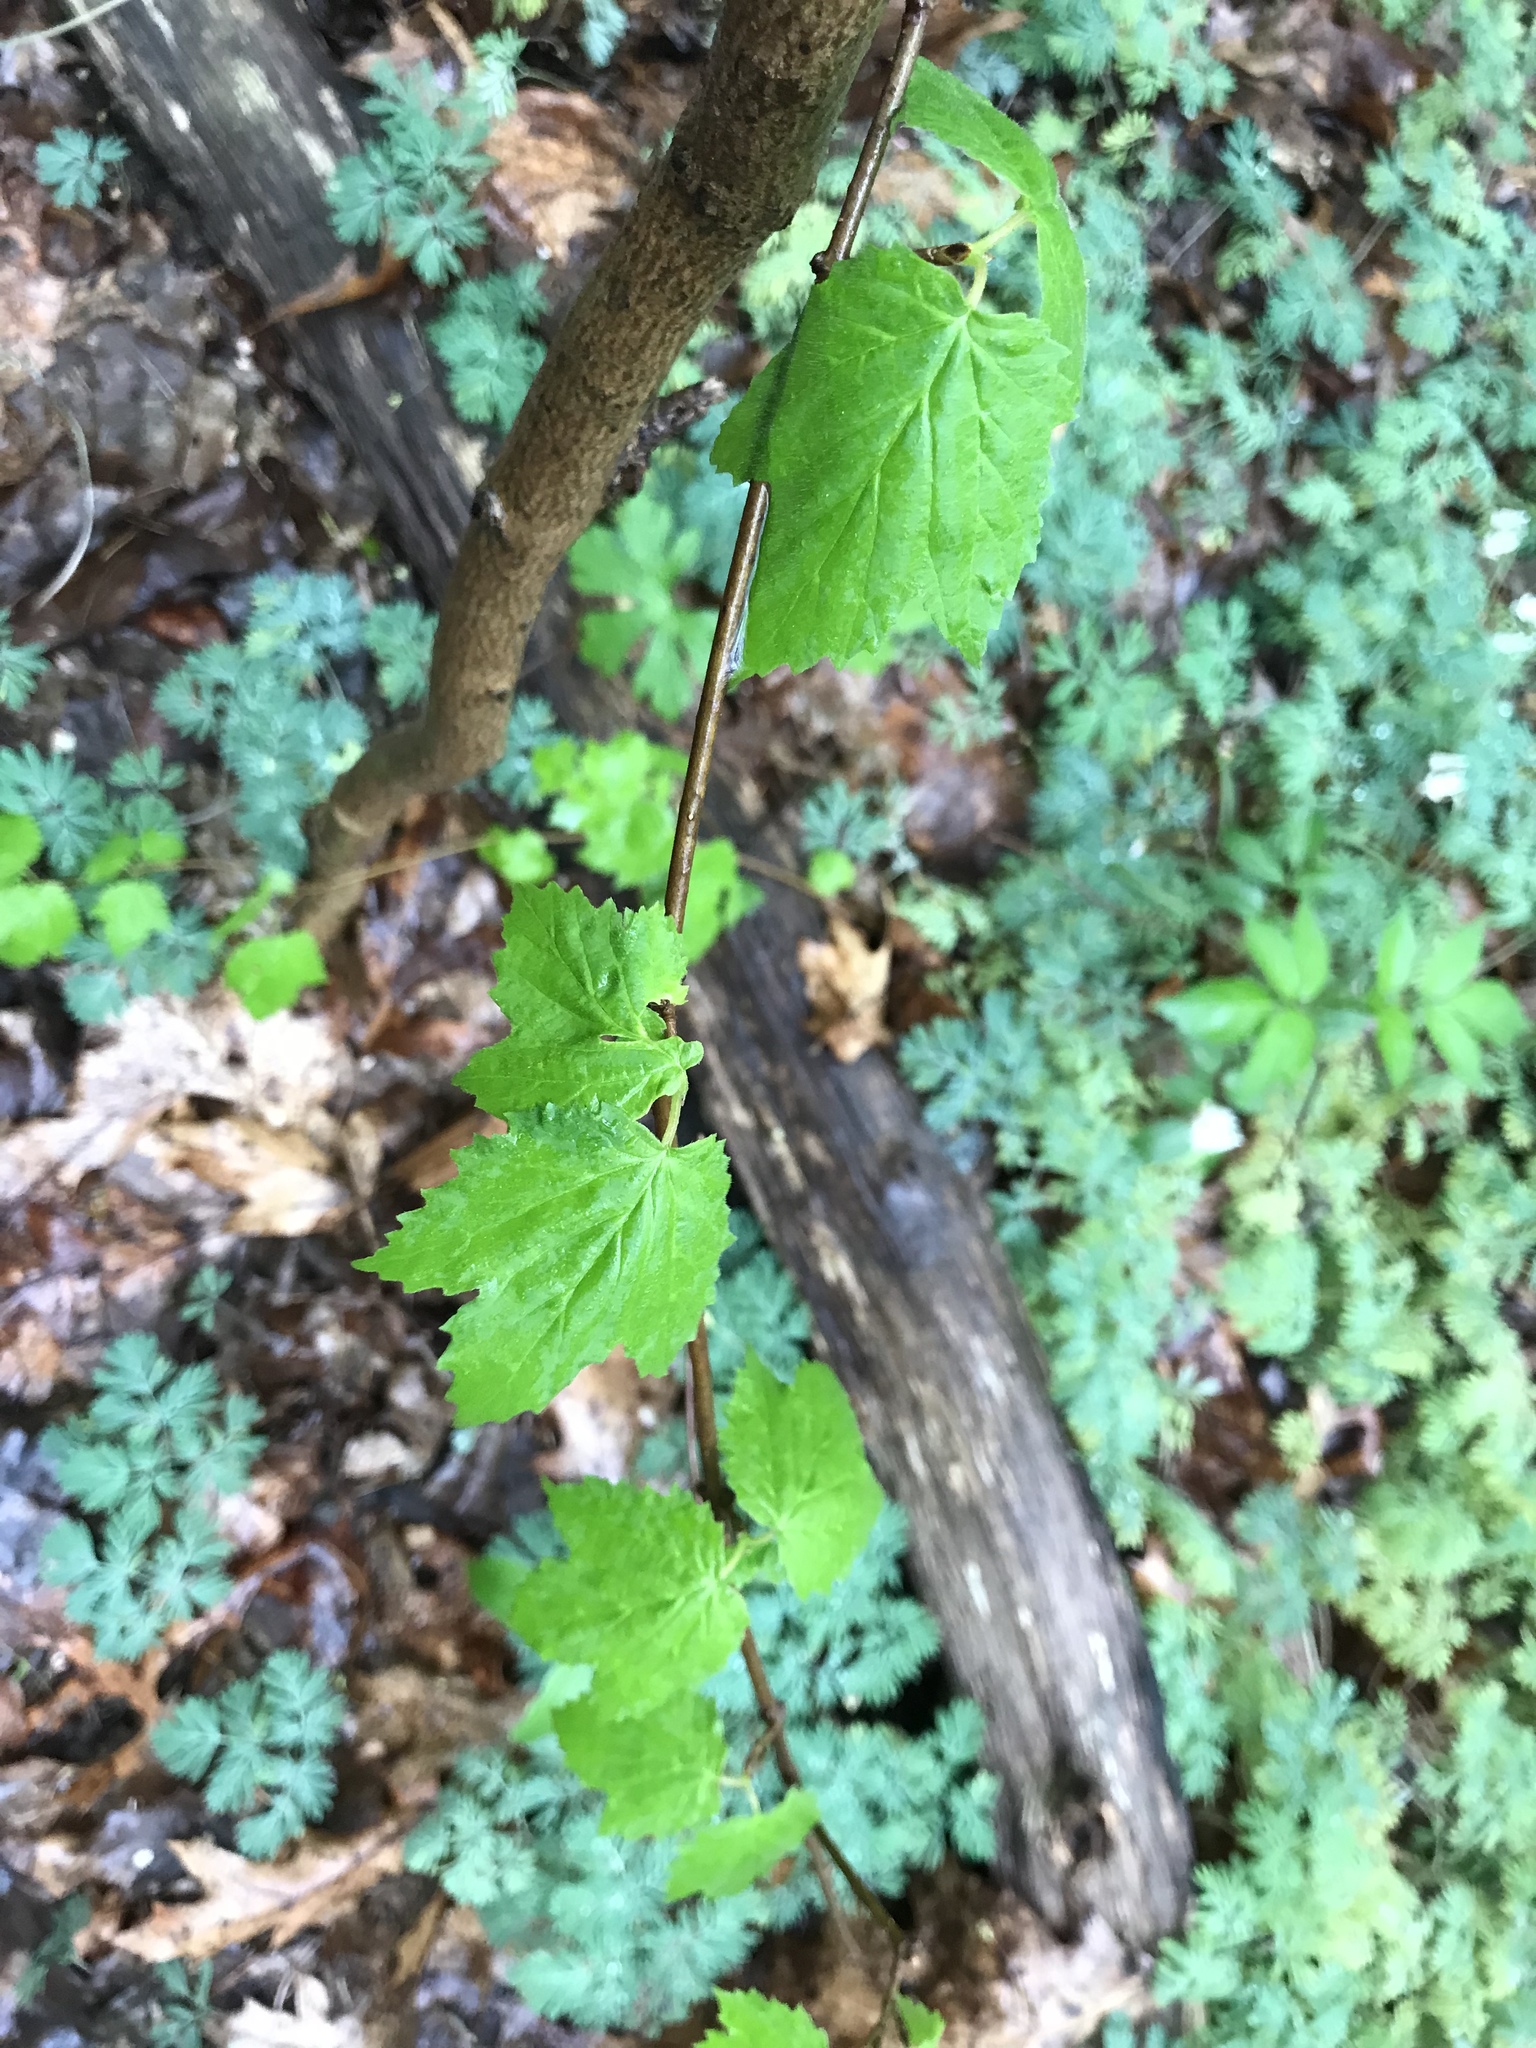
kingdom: Plantae
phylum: Tracheophyta
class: Magnoliopsida
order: Dipsacales
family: Viburnaceae
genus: Viburnum
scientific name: Viburnum acerifolium
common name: Dockmackie
